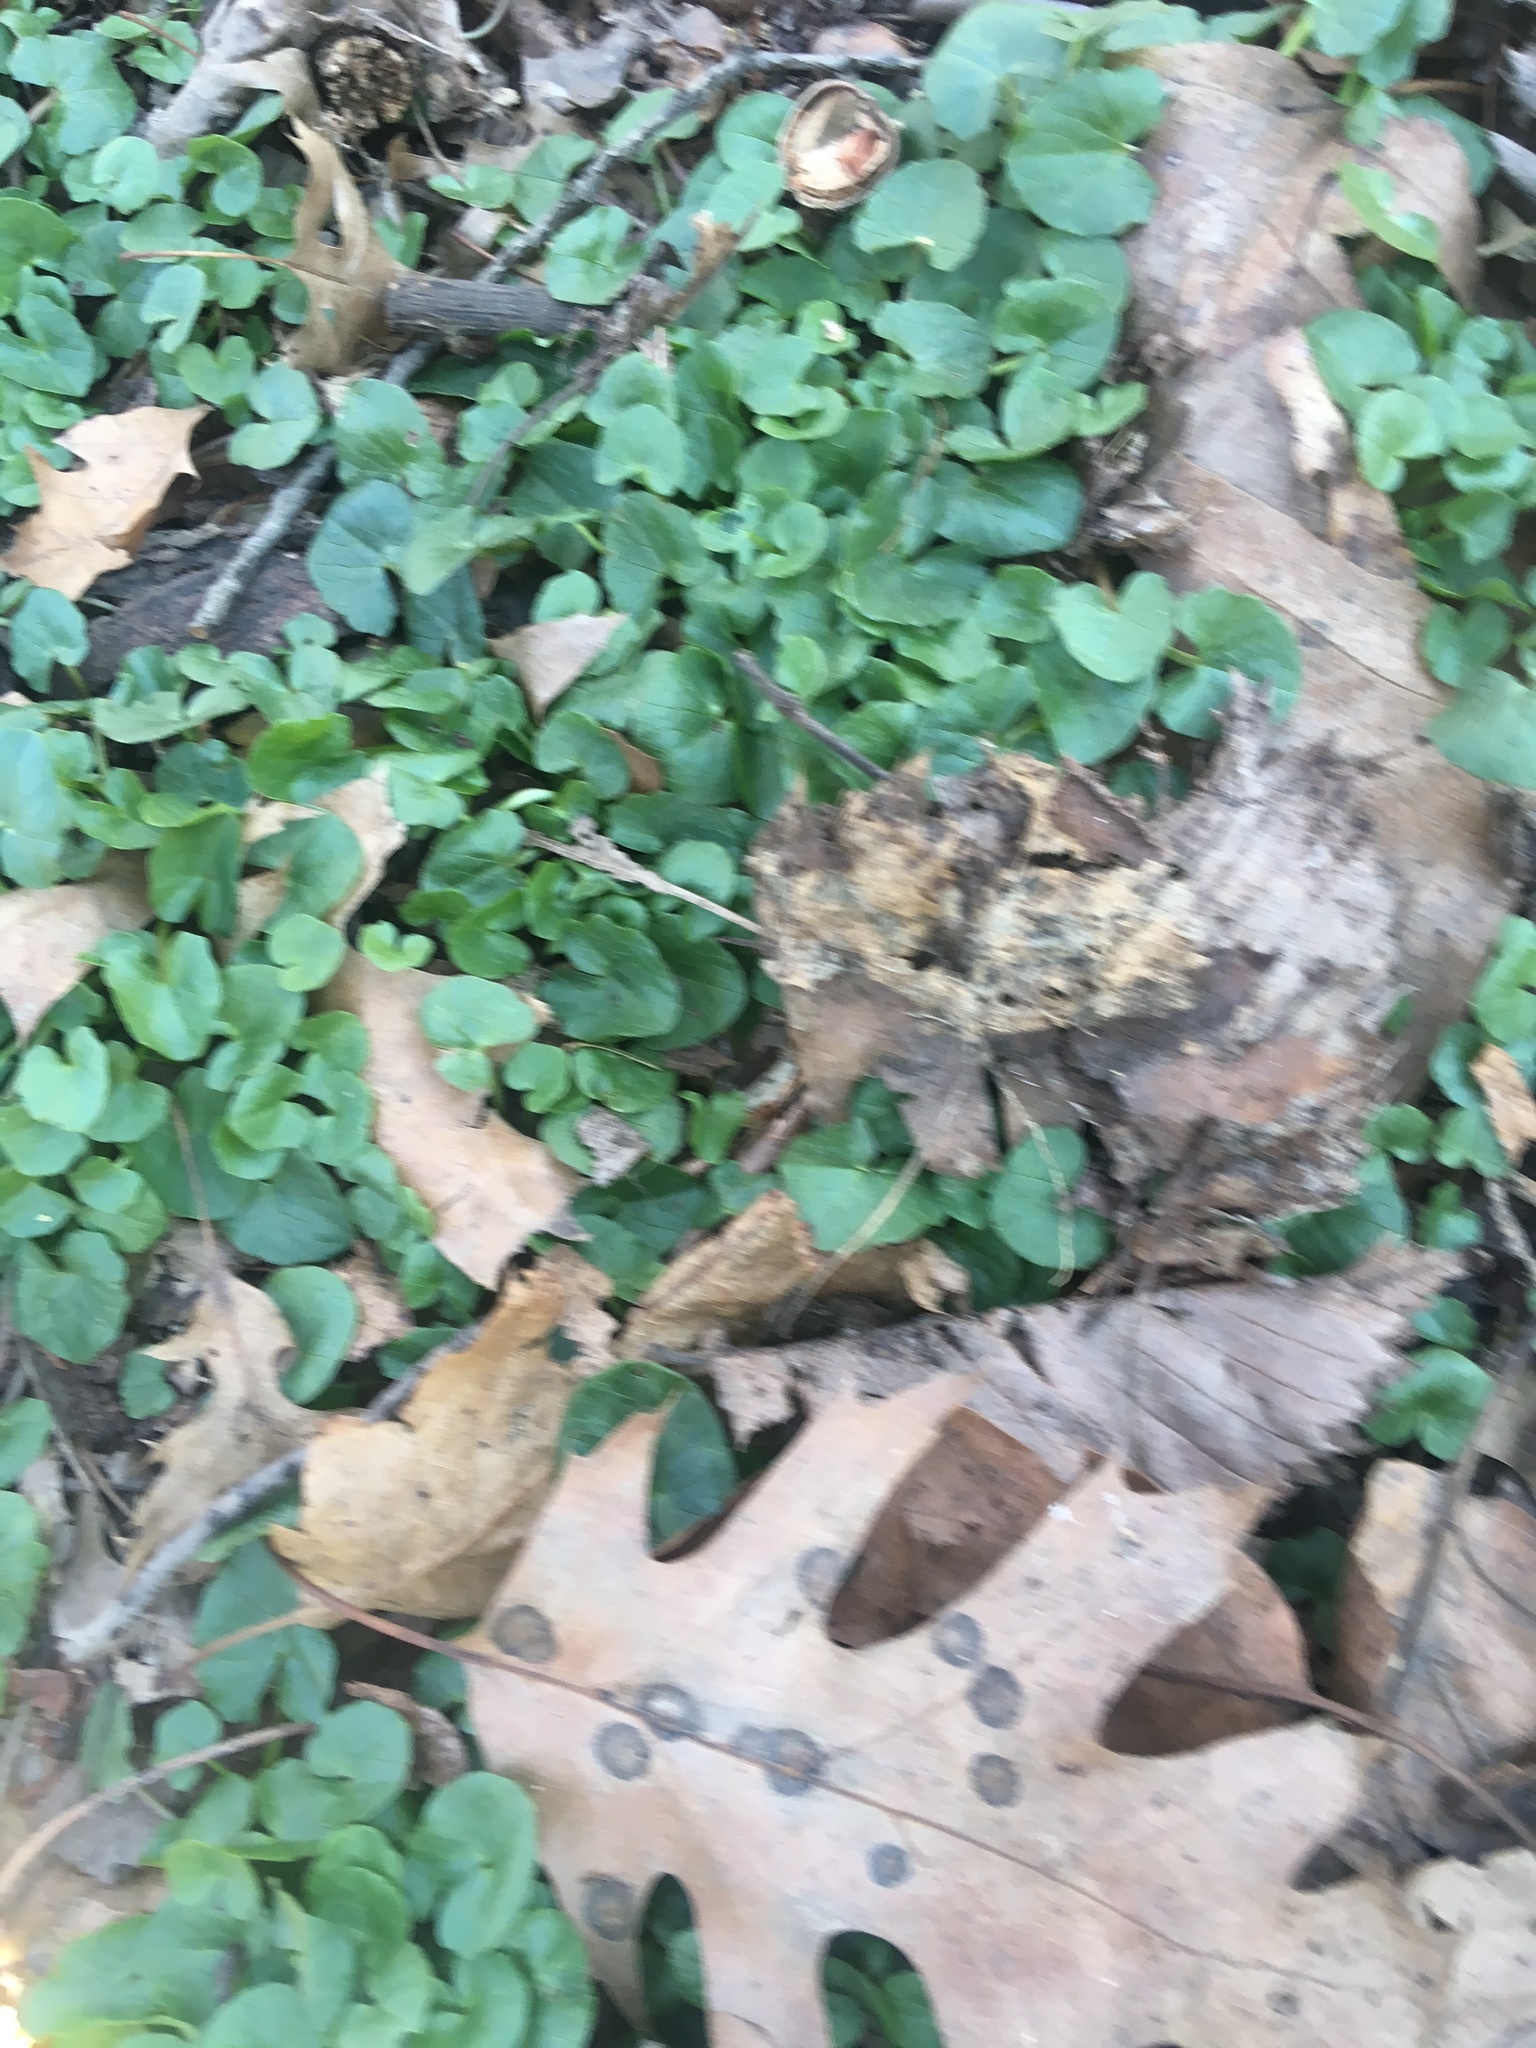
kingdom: Plantae
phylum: Tracheophyta
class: Magnoliopsida
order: Ranunculales
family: Ranunculaceae
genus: Ficaria
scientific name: Ficaria verna
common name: Lesser celandine
